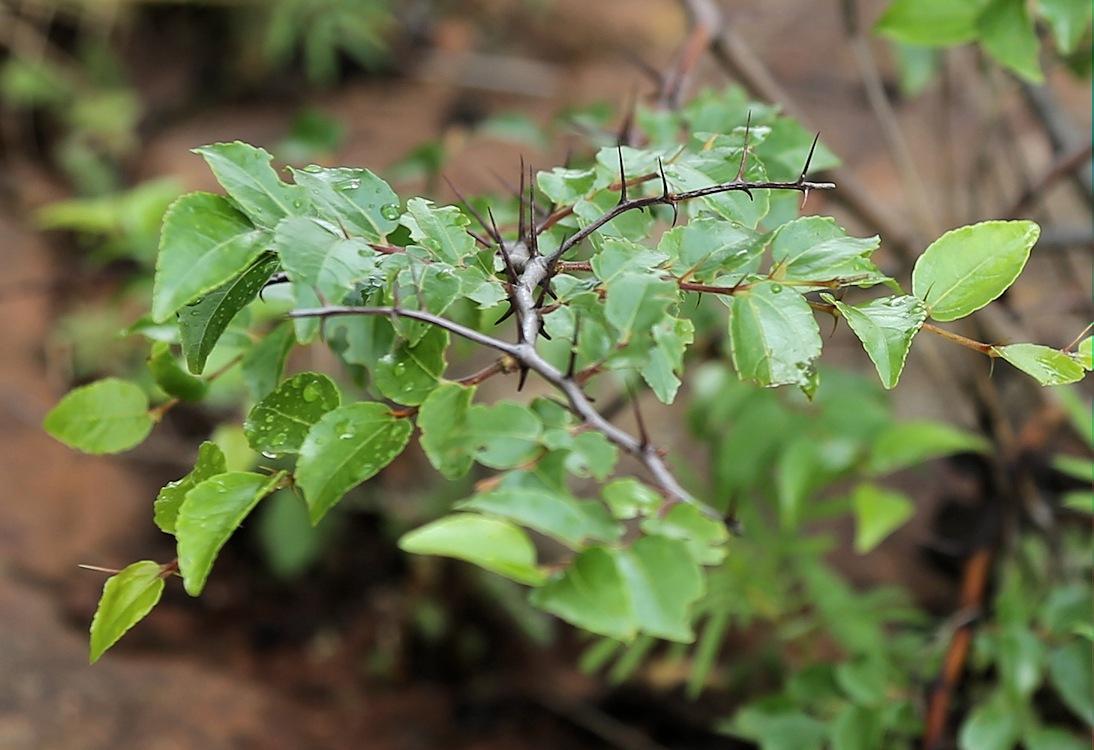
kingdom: Plantae
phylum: Tracheophyta
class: Magnoliopsida
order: Rosales
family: Rhamnaceae
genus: Ziziphus
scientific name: Ziziphus mucronata
